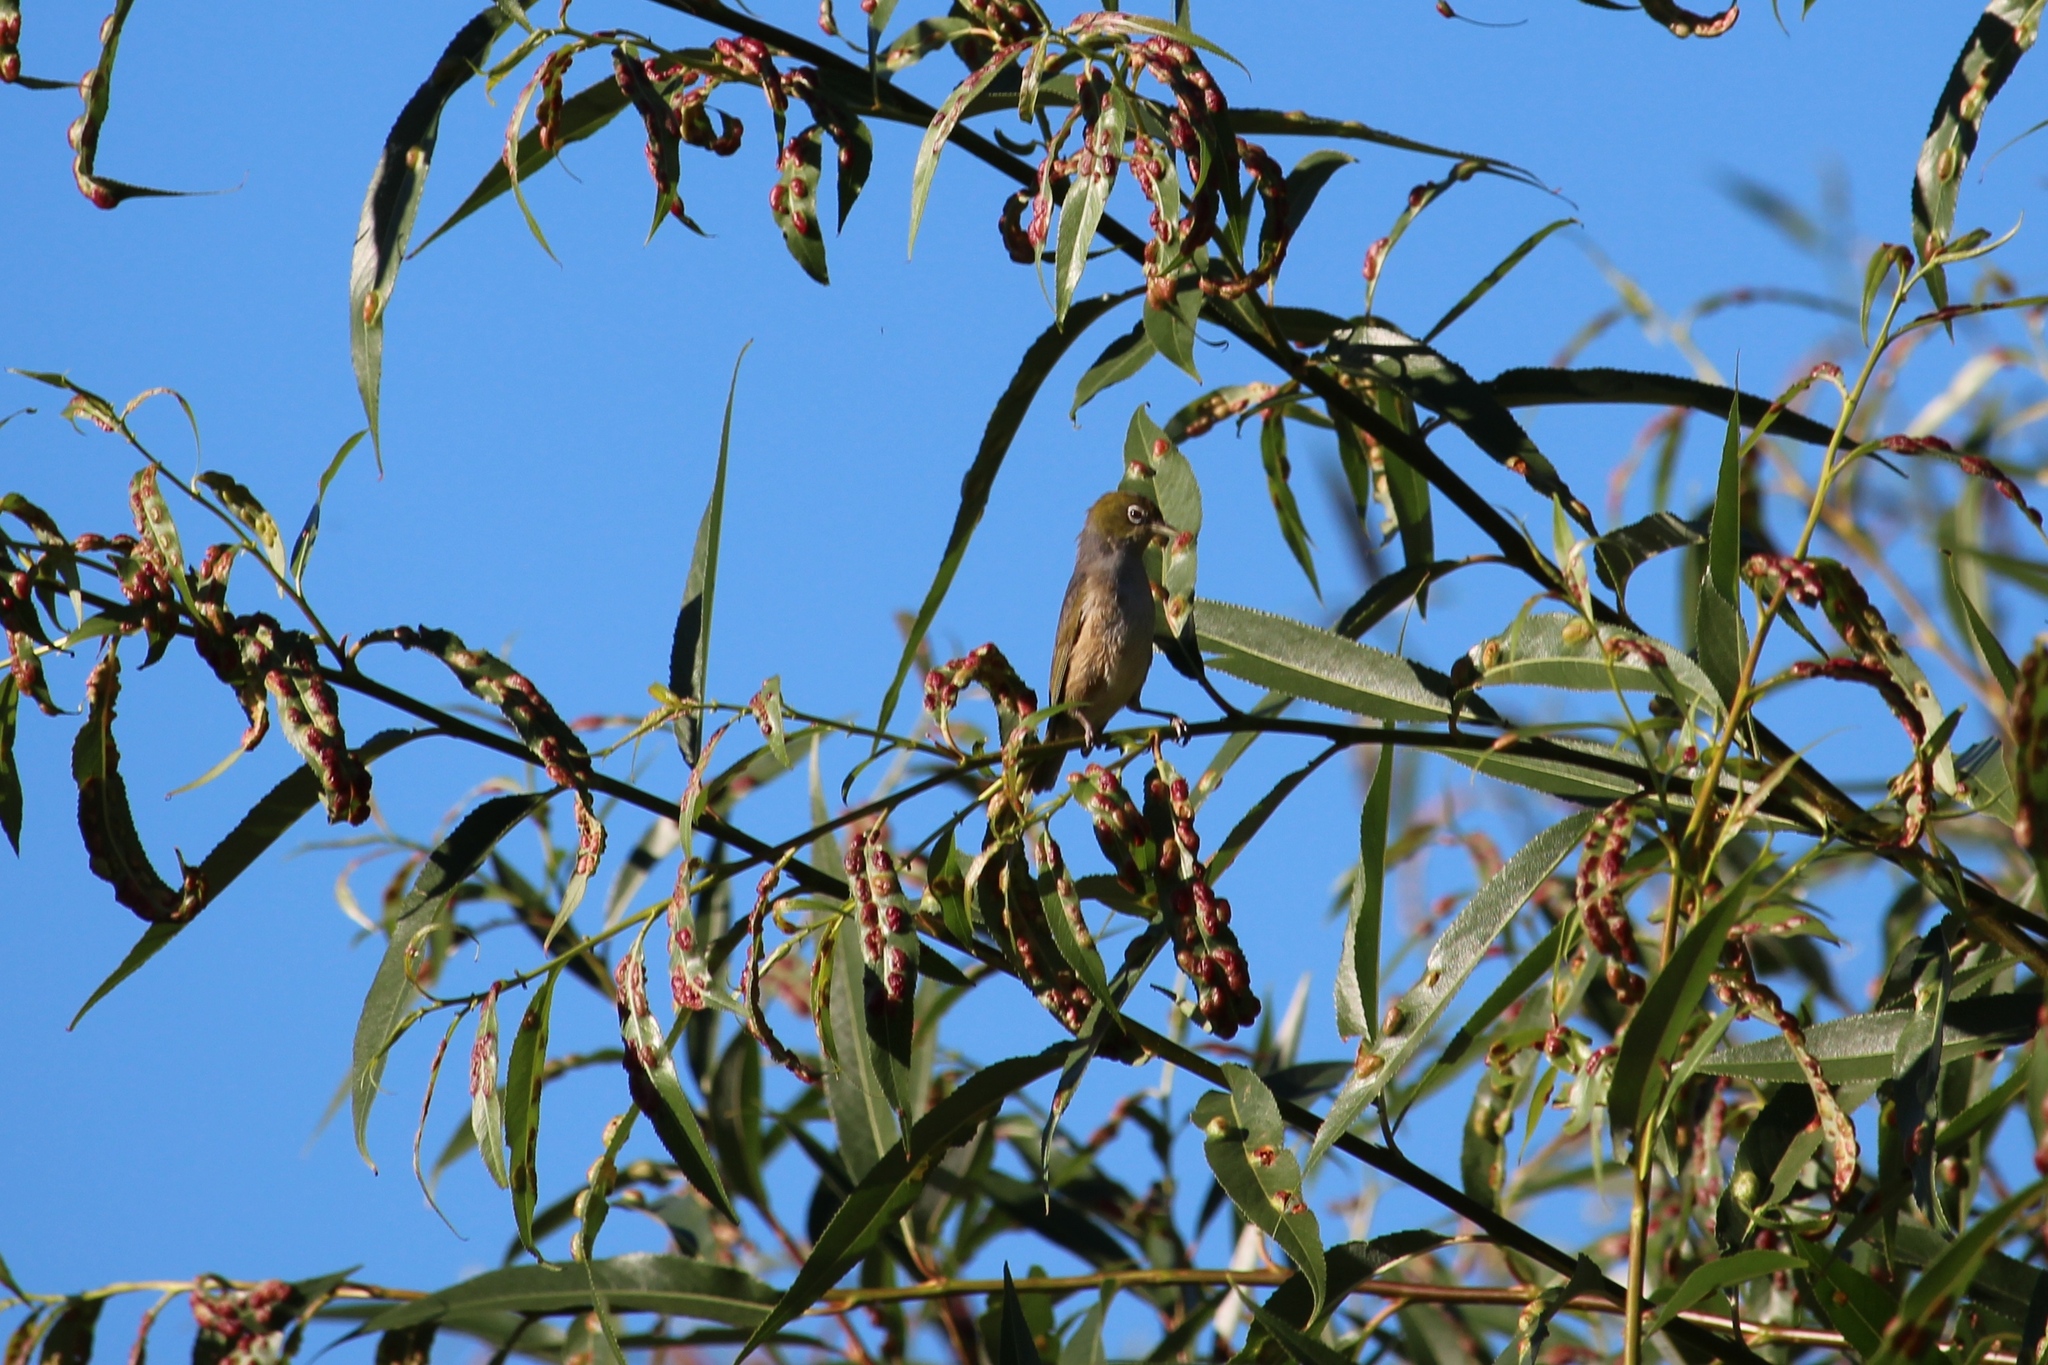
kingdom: Animalia
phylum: Chordata
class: Aves
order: Passeriformes
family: Zosteropidae
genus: Zosterops
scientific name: Zosterops lateralis
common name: Silvereye
